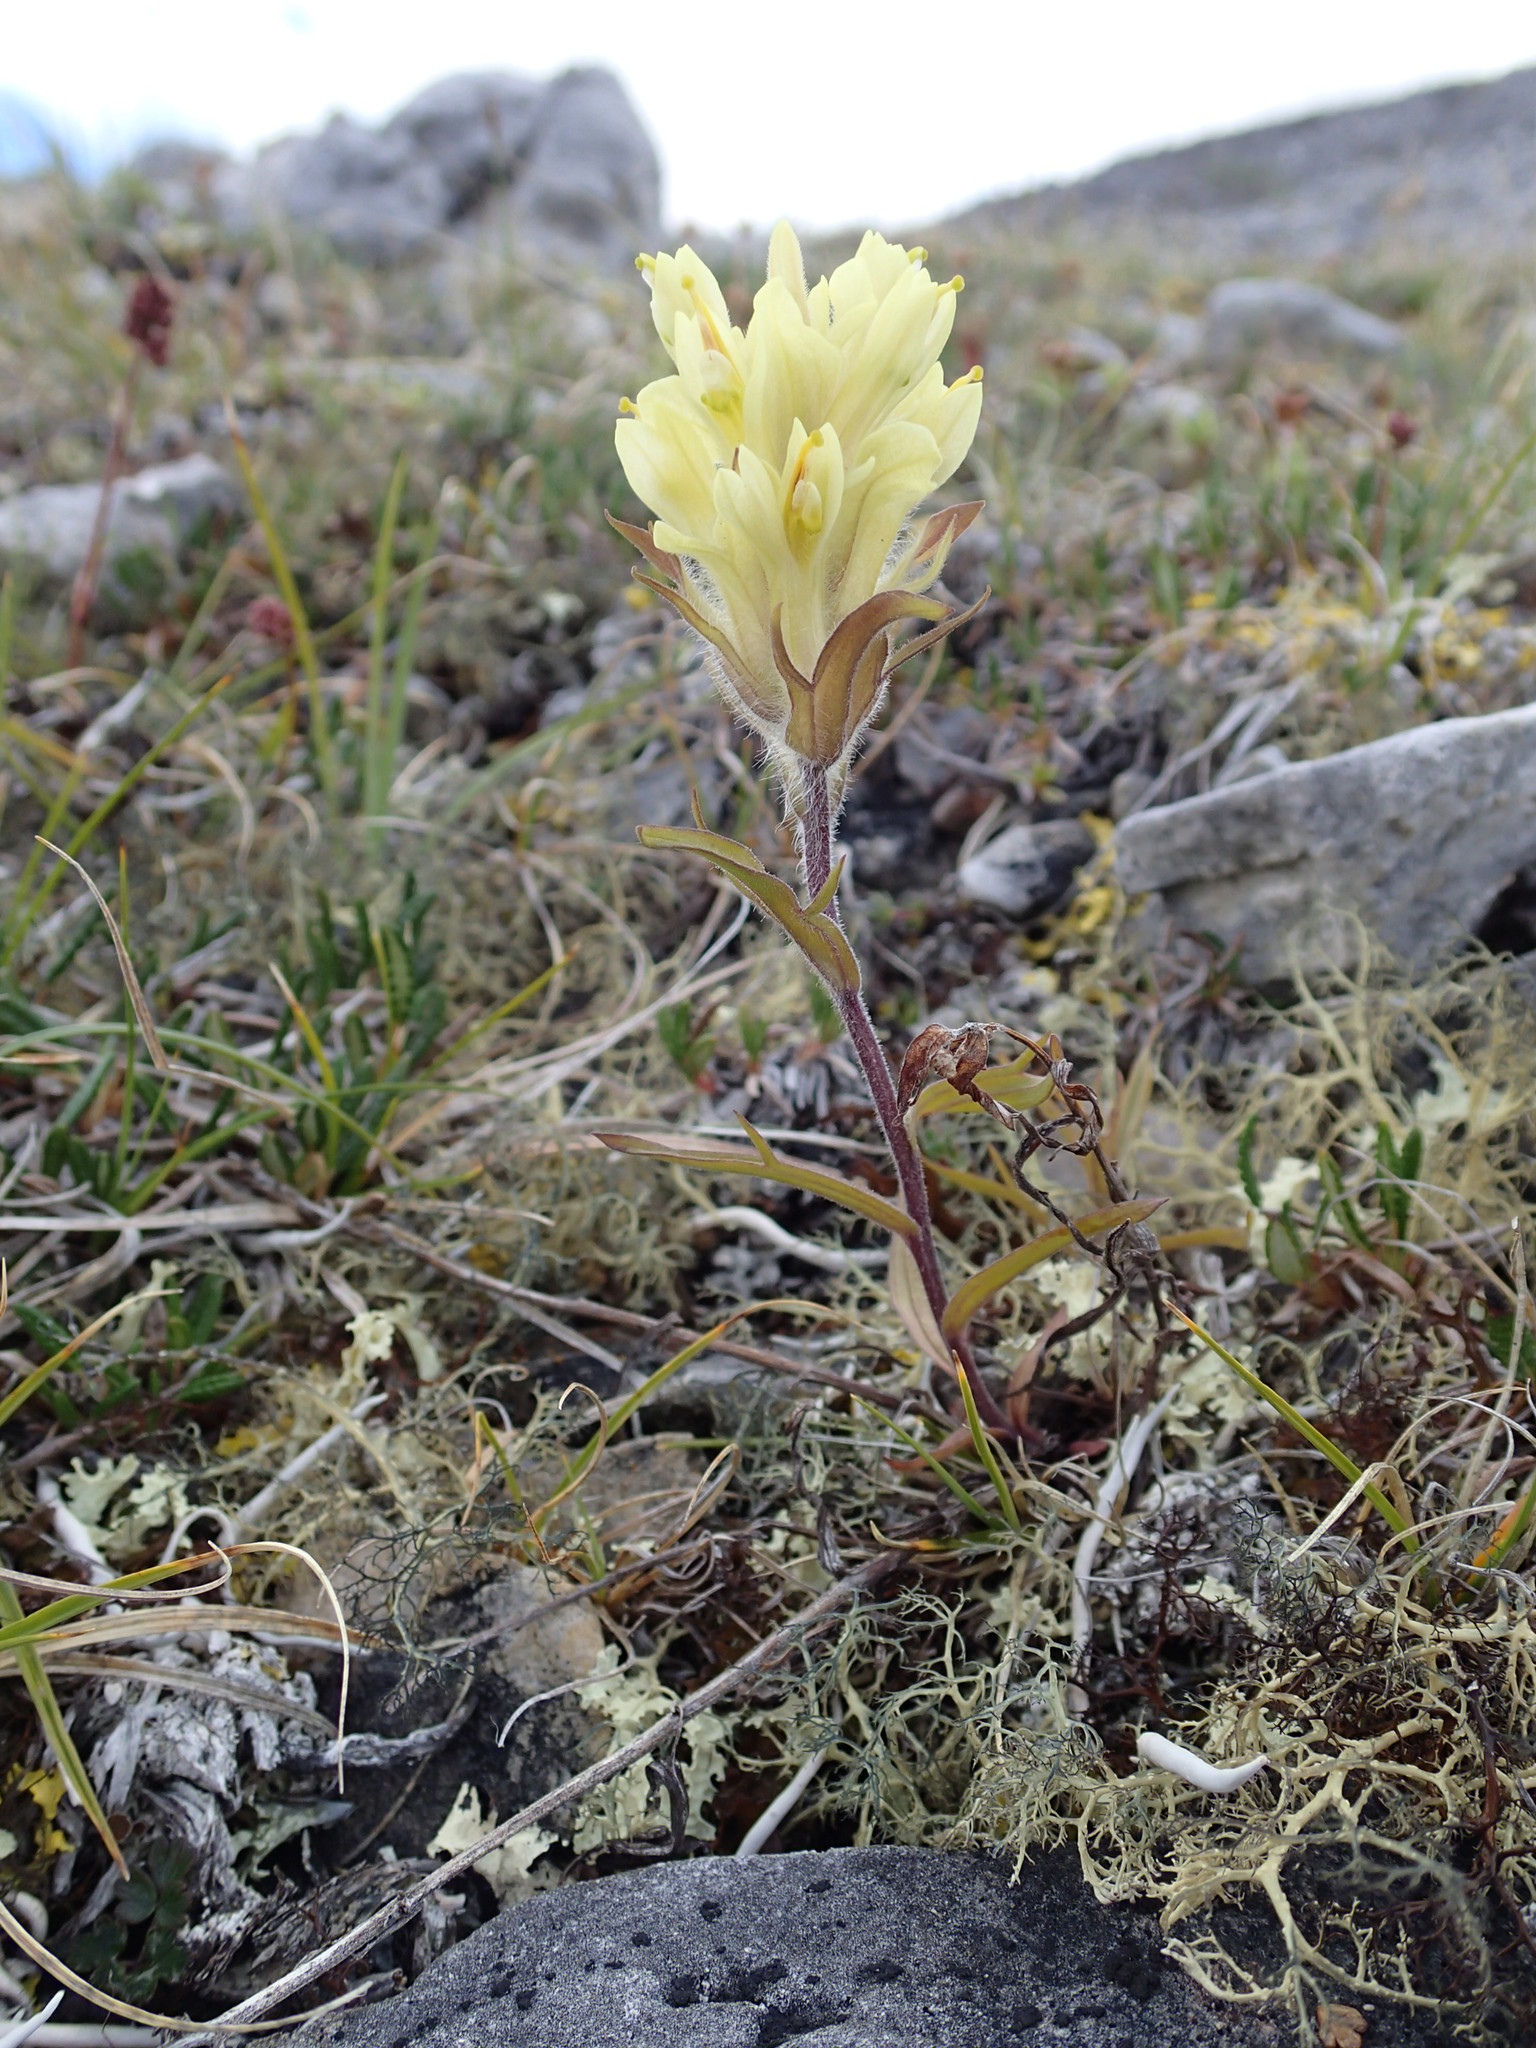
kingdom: Plantae
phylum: Tracheophyta
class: Magnoliopsida
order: Lamiales
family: Orobanchaceae
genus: Castilleja
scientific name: Castilleja hyperborea
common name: Northern paintbrush
